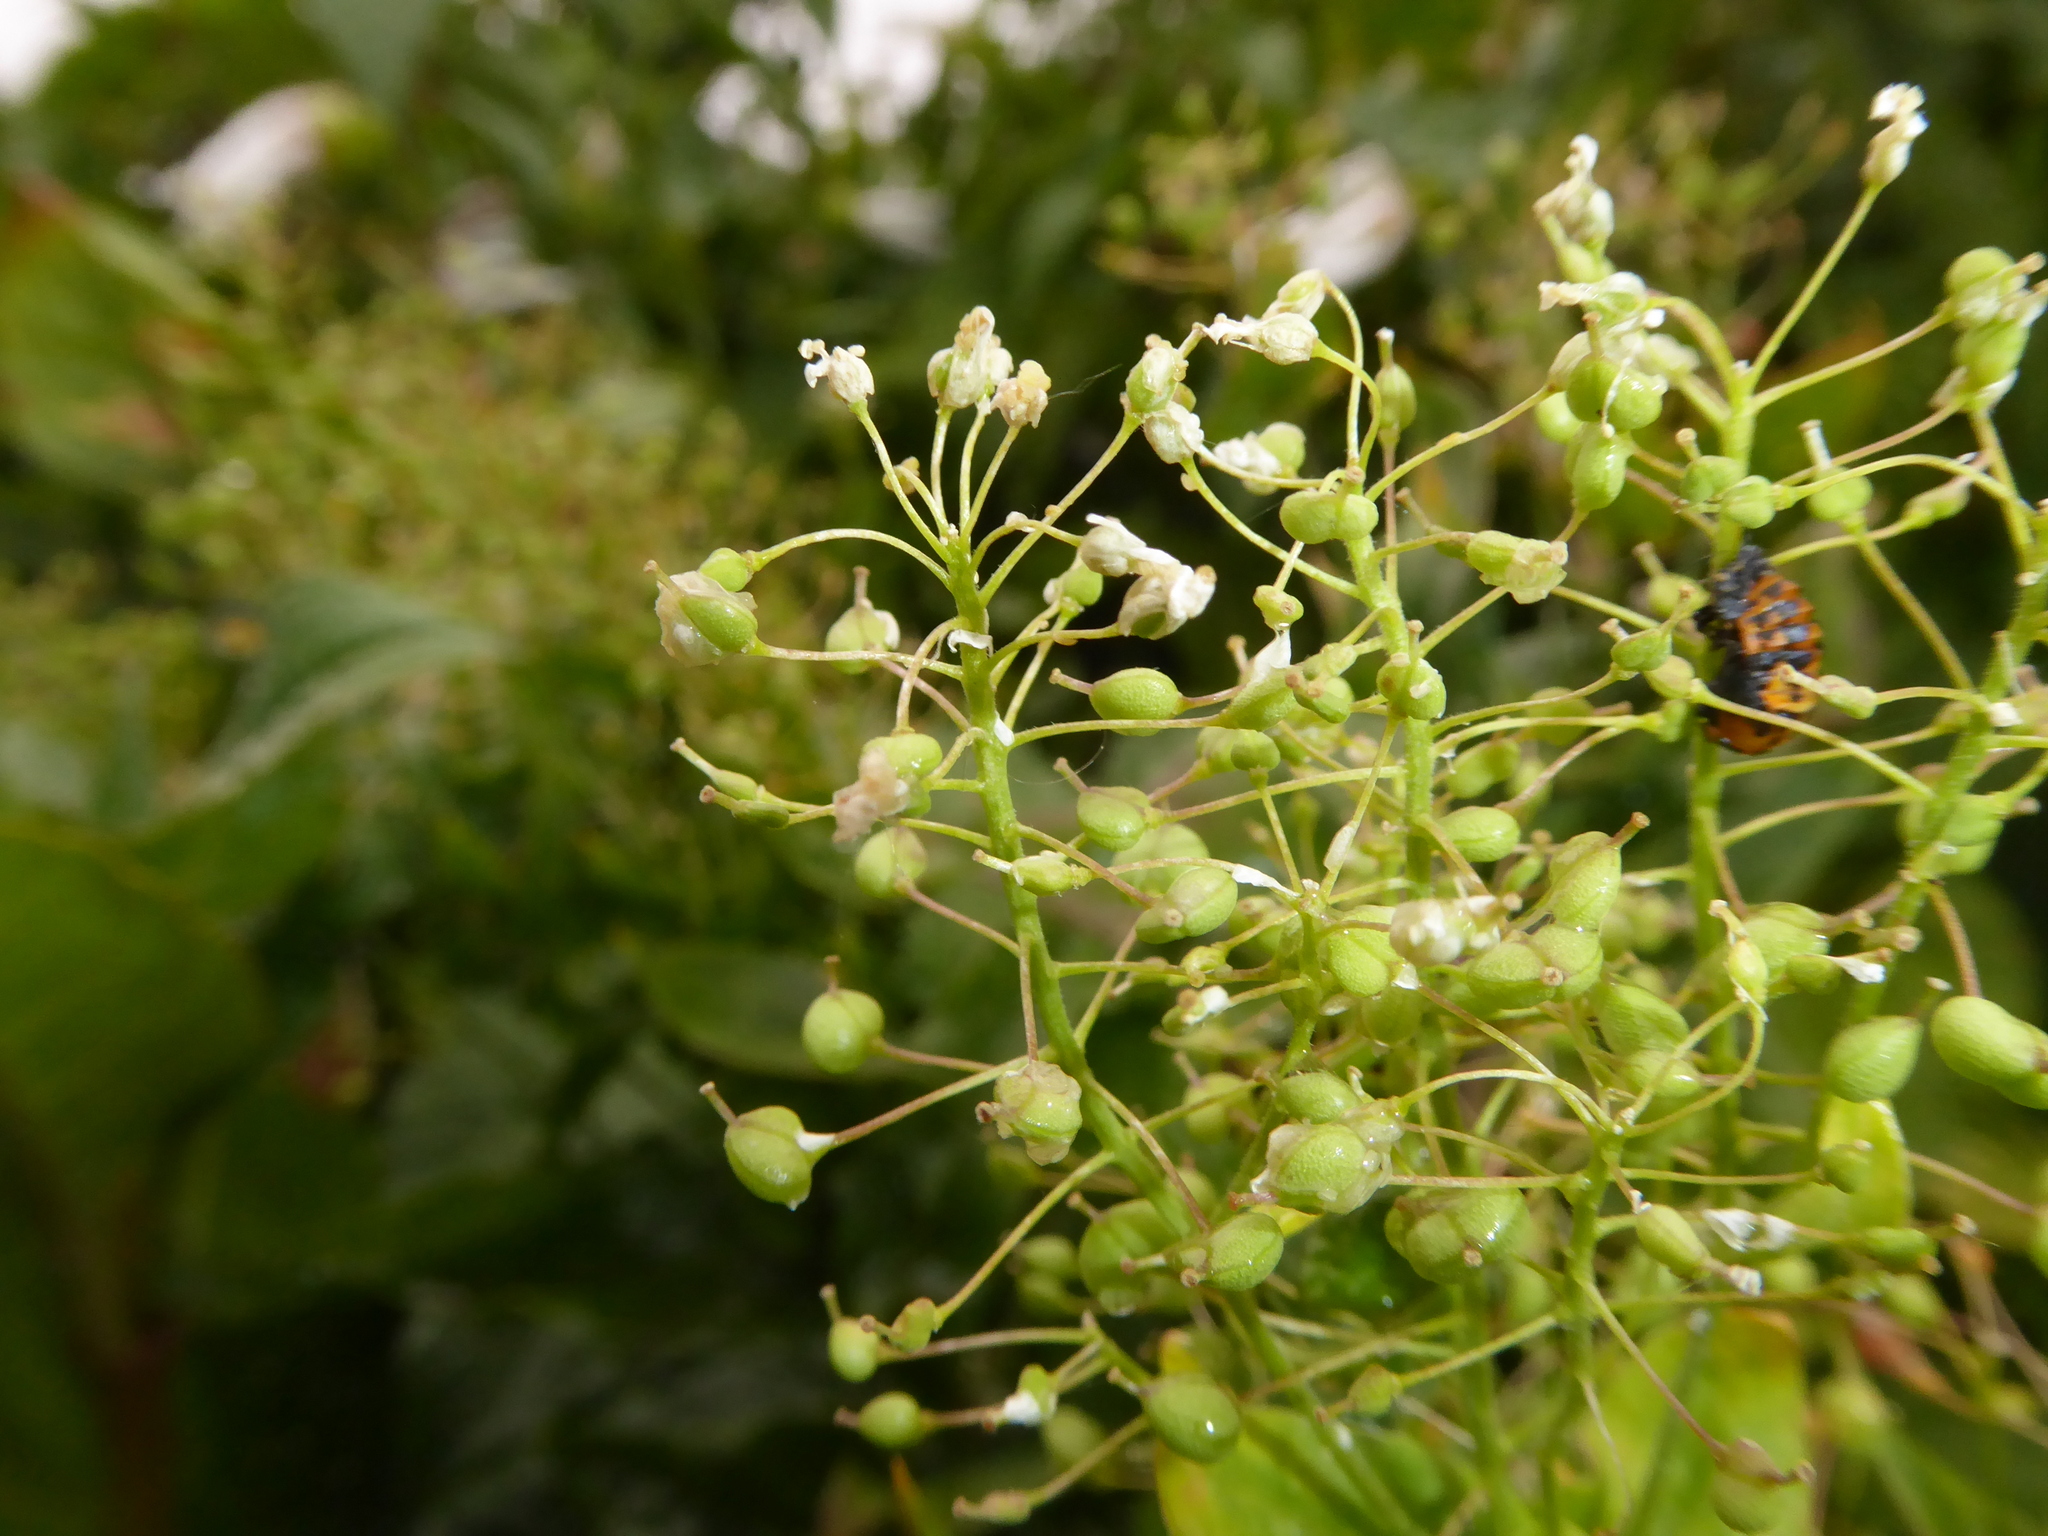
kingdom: Plantae
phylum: Tracheophyta
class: Magnoliopsida
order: Brassicales
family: Brassicaceae
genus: Lepidium
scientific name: Lepidium draba
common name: Hoary cress
